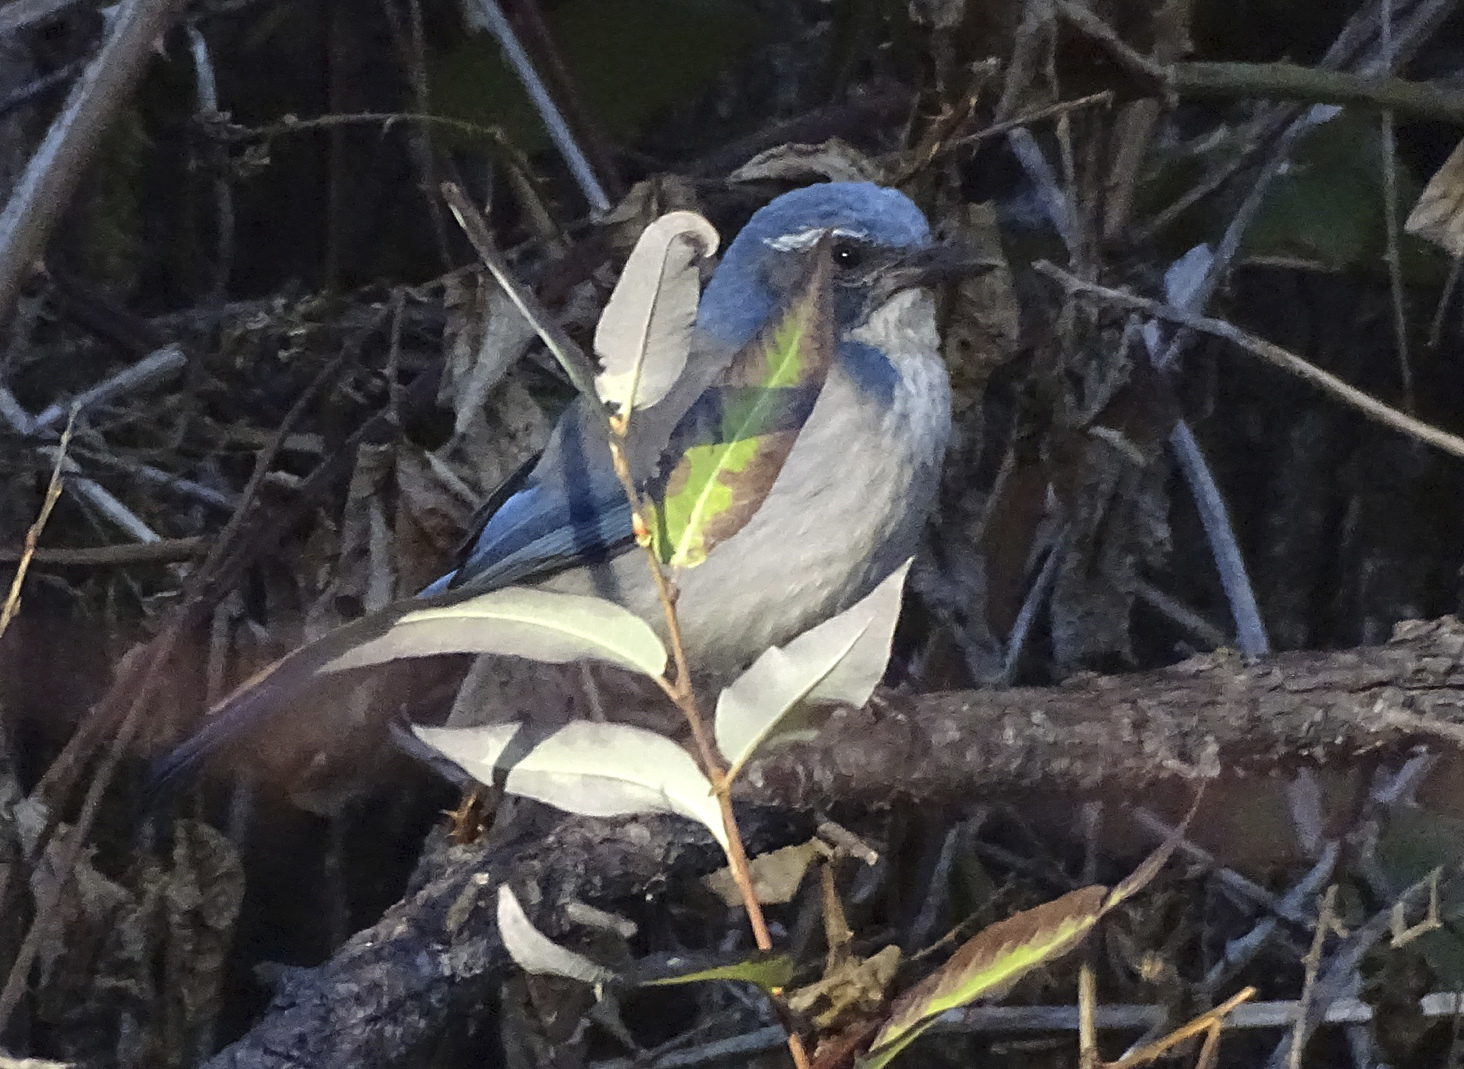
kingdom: Animalia
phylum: Chordata
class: Aves
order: Passeriformes
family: Corvidae
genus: Aphelocoma
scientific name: Aphelocoma californica
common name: California scrub-jay
